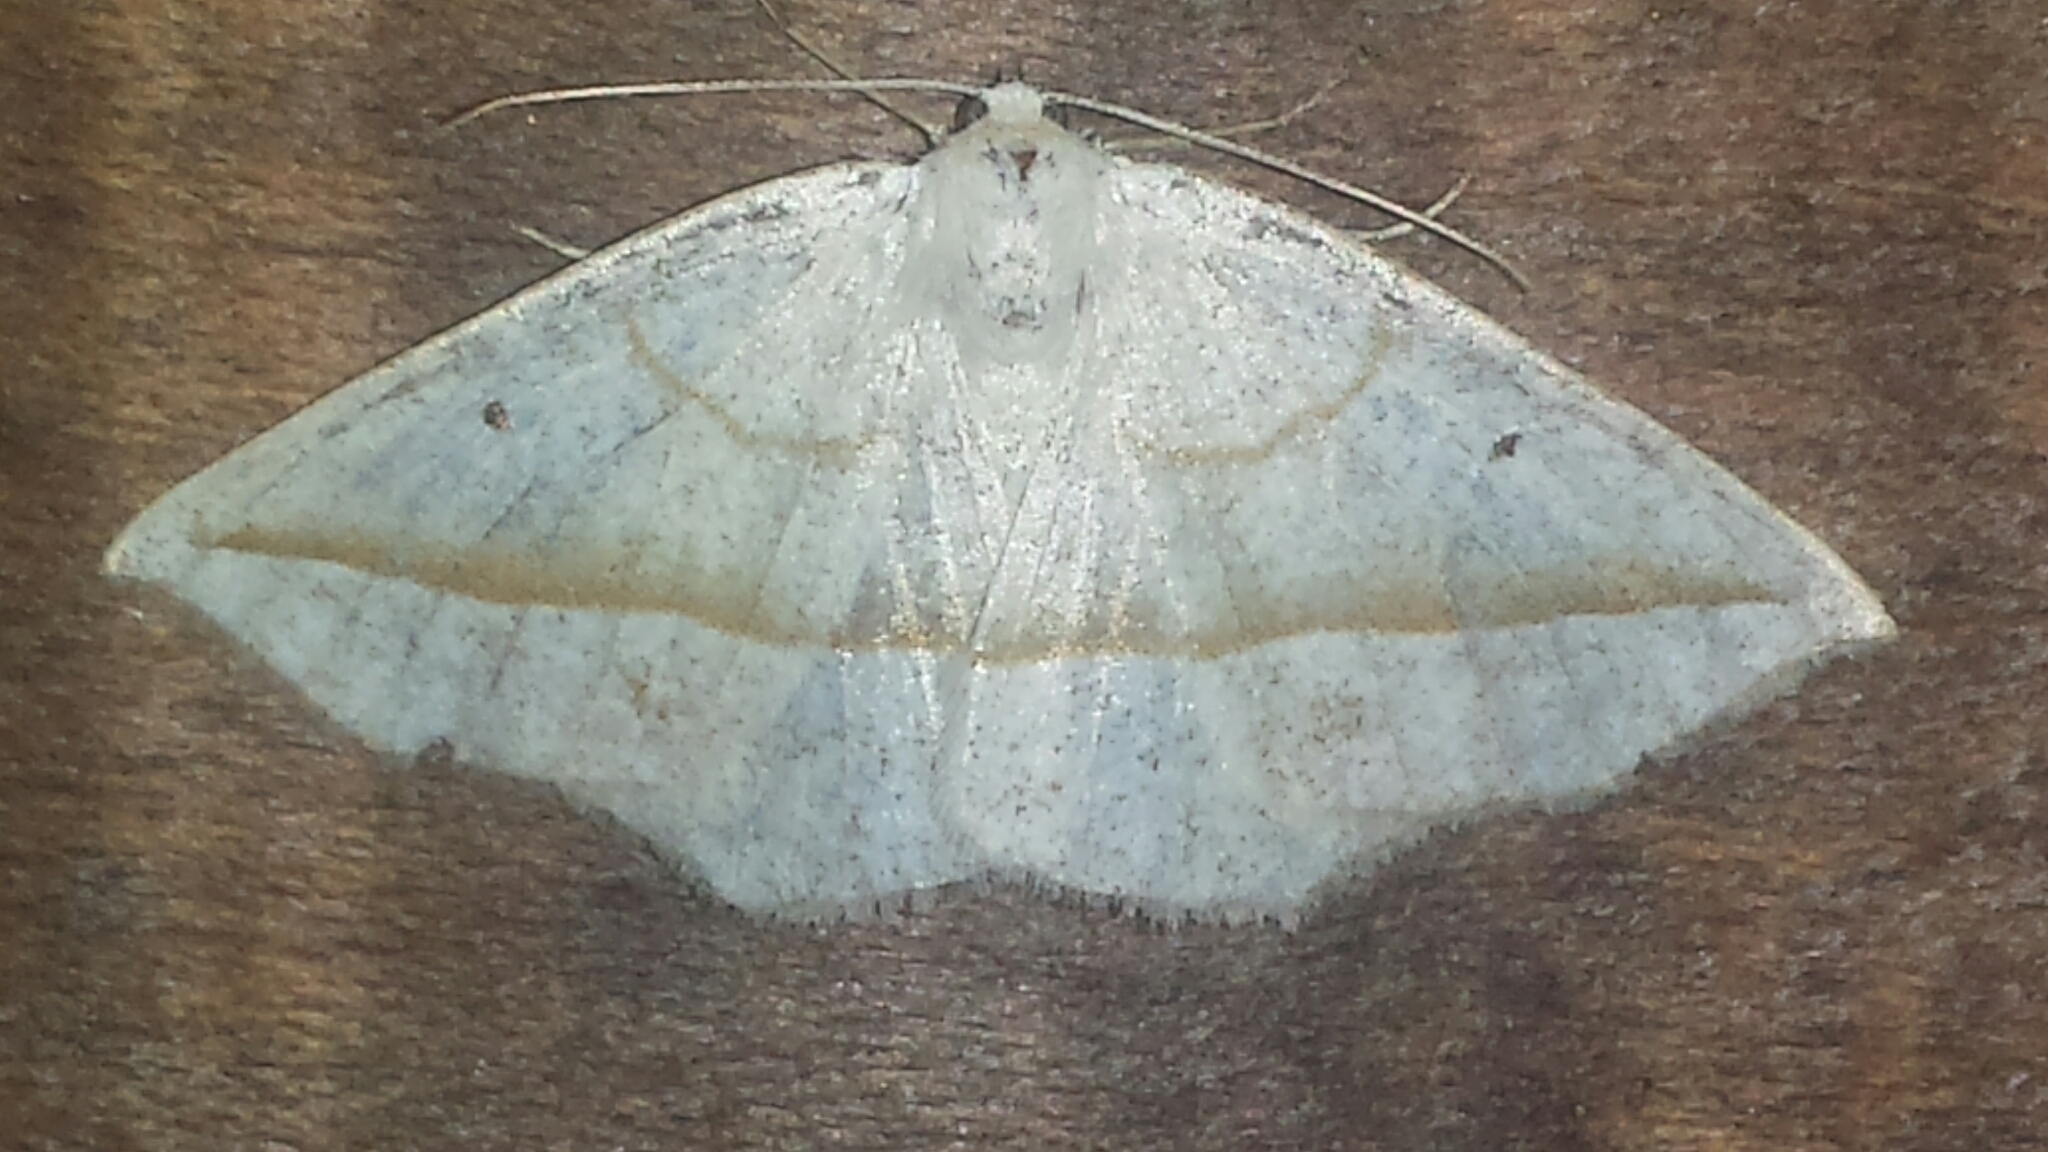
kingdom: Animalia
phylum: Arthropoda
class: Insecta
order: Lepidoptera
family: Geometridae
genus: Eusarca
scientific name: Eusarca confusaria
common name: Confused eusarca
